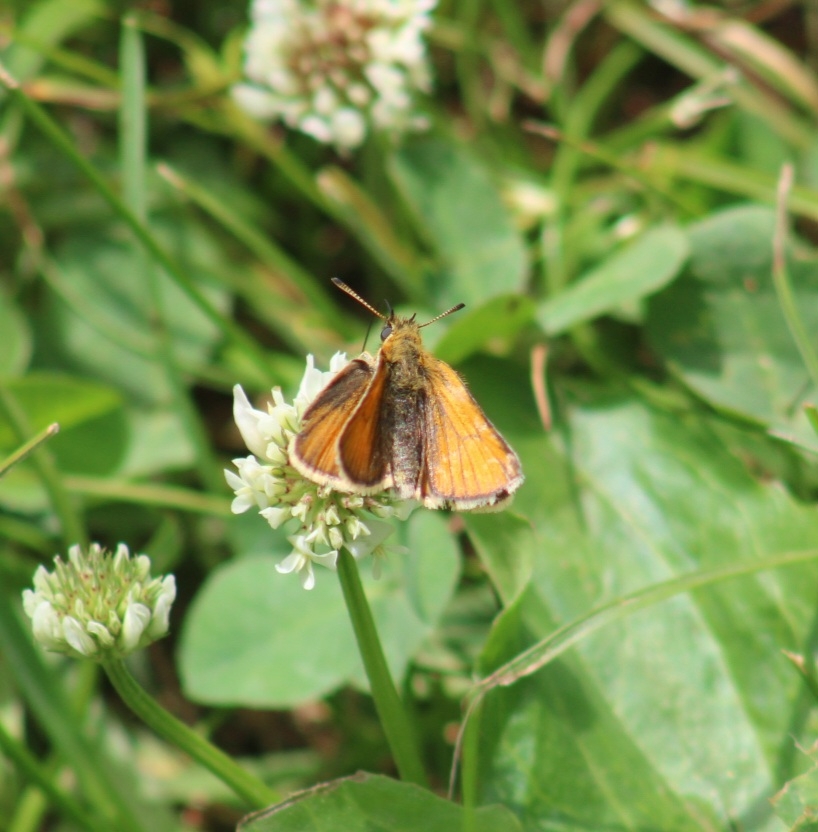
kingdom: Animalia
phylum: Arthropoda
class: Insecta
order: Lepidoptera
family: Hesperiidae
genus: Thymelicus
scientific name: Thymelicus lineola
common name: Essex skipper
